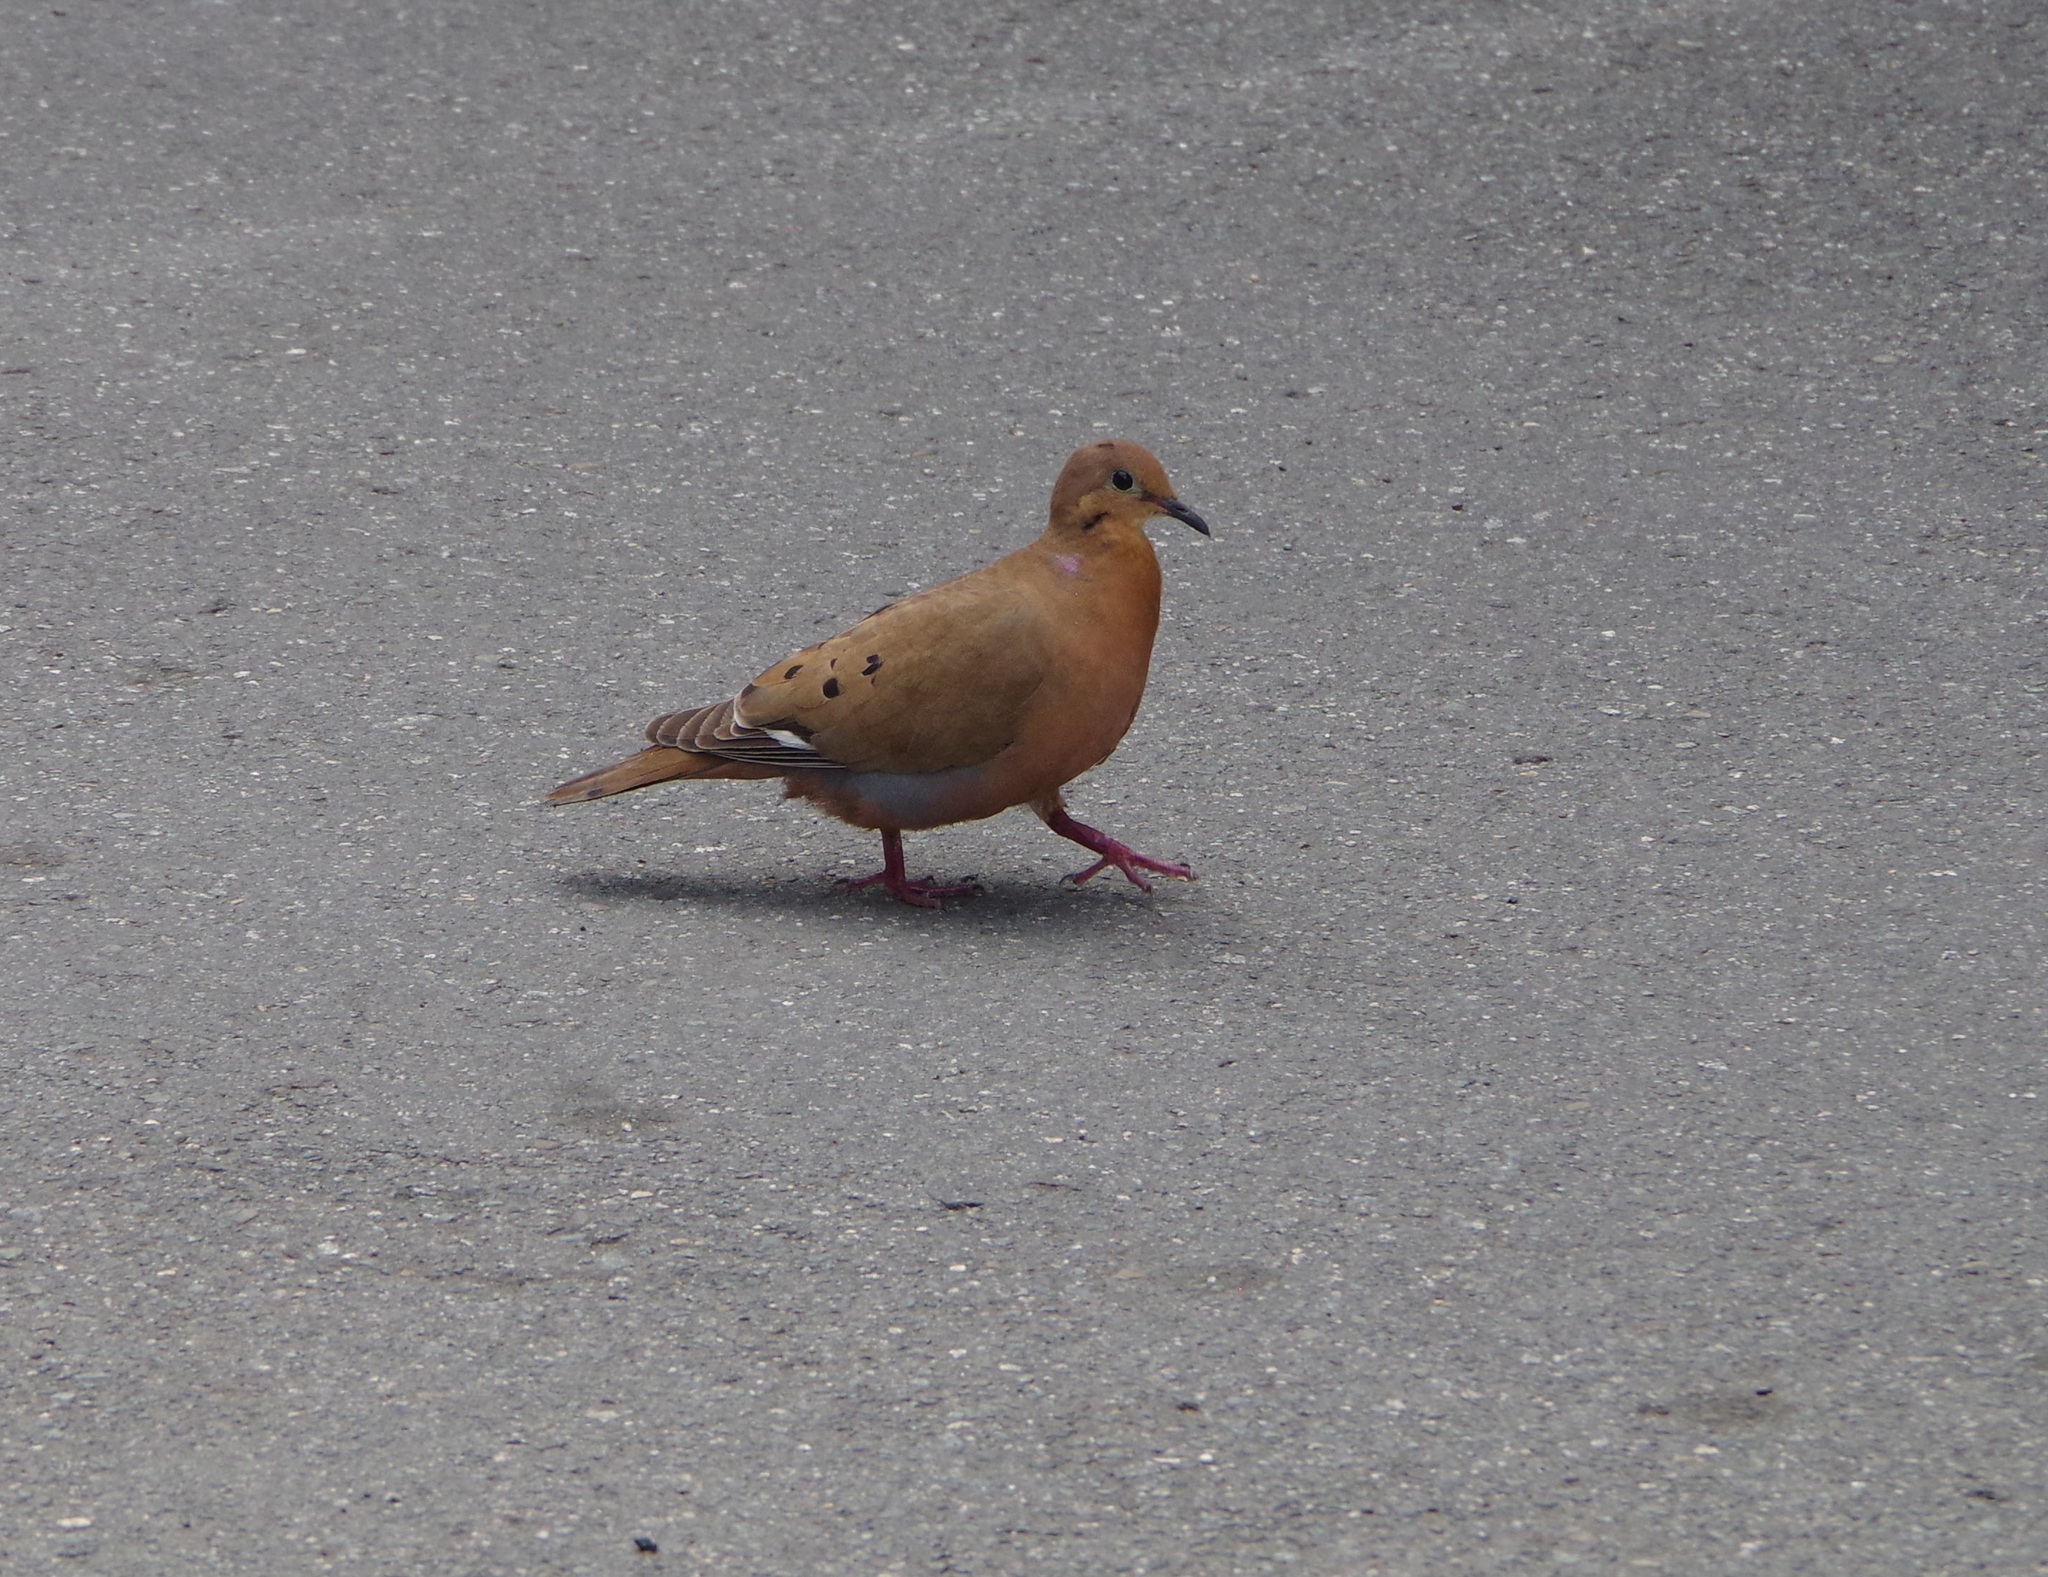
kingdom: Animalia
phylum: Chordata
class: Aves
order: Columbiformes
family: Columbidae
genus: Zenaida
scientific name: Zenaida aurita
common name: Zenaida dove
